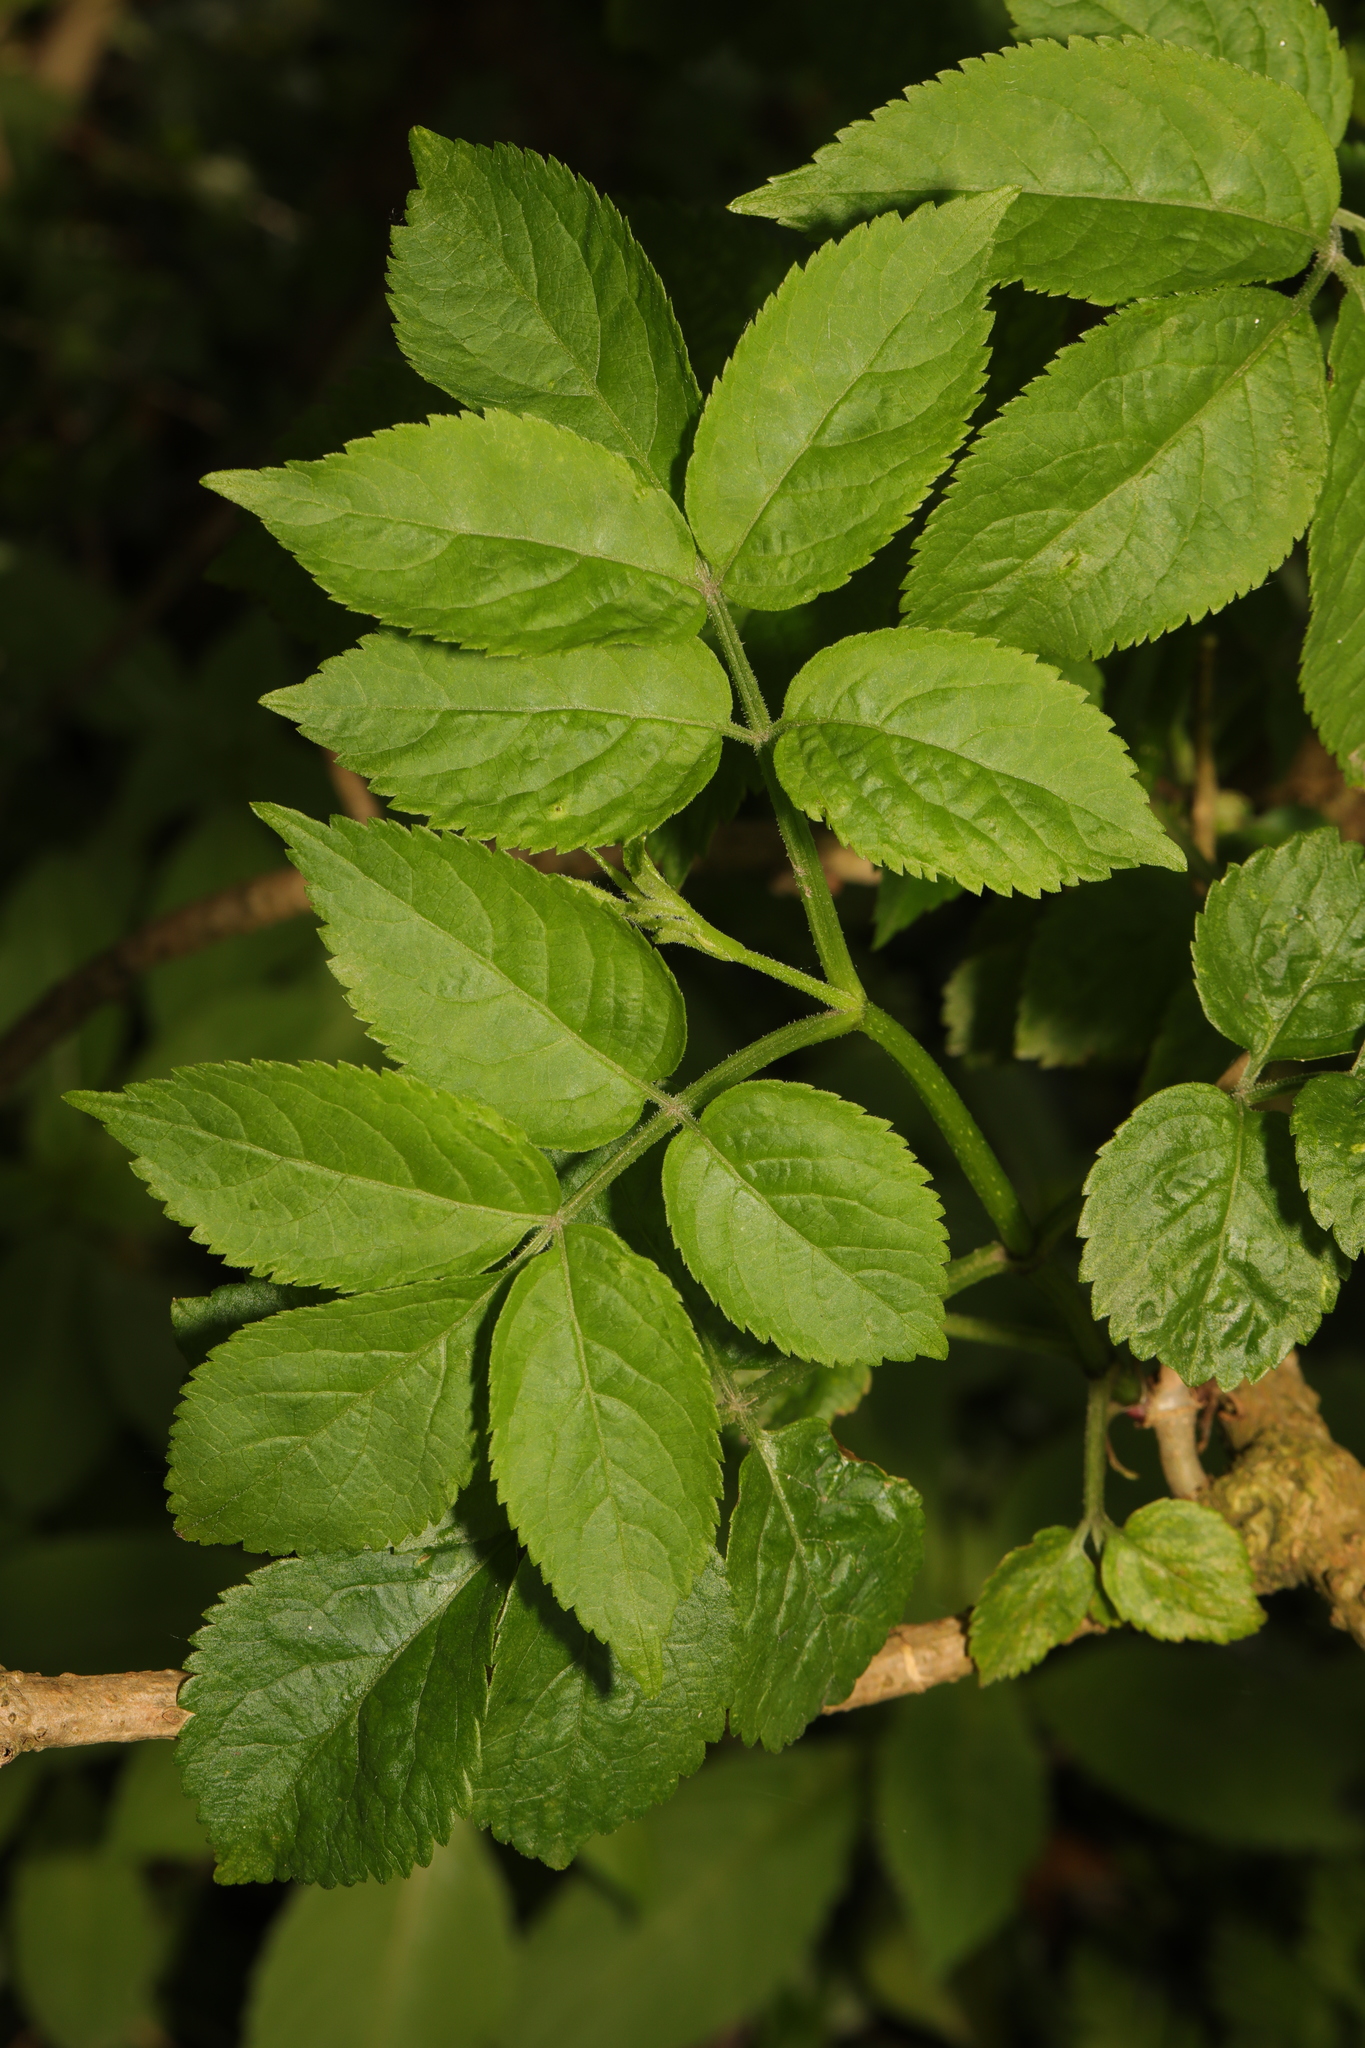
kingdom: Plantae
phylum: Tracheophyta
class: Magnoliopsida
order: Dipsacales
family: Viburnaceae
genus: Sambucus
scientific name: Sambucus nigra
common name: Elder
